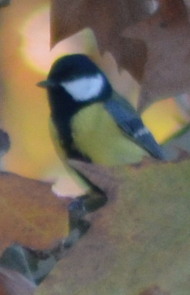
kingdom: Animalia
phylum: Chordata
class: Aves
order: Passeriformes
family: Paridae
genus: Parus
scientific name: Parus major
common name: Great tit
